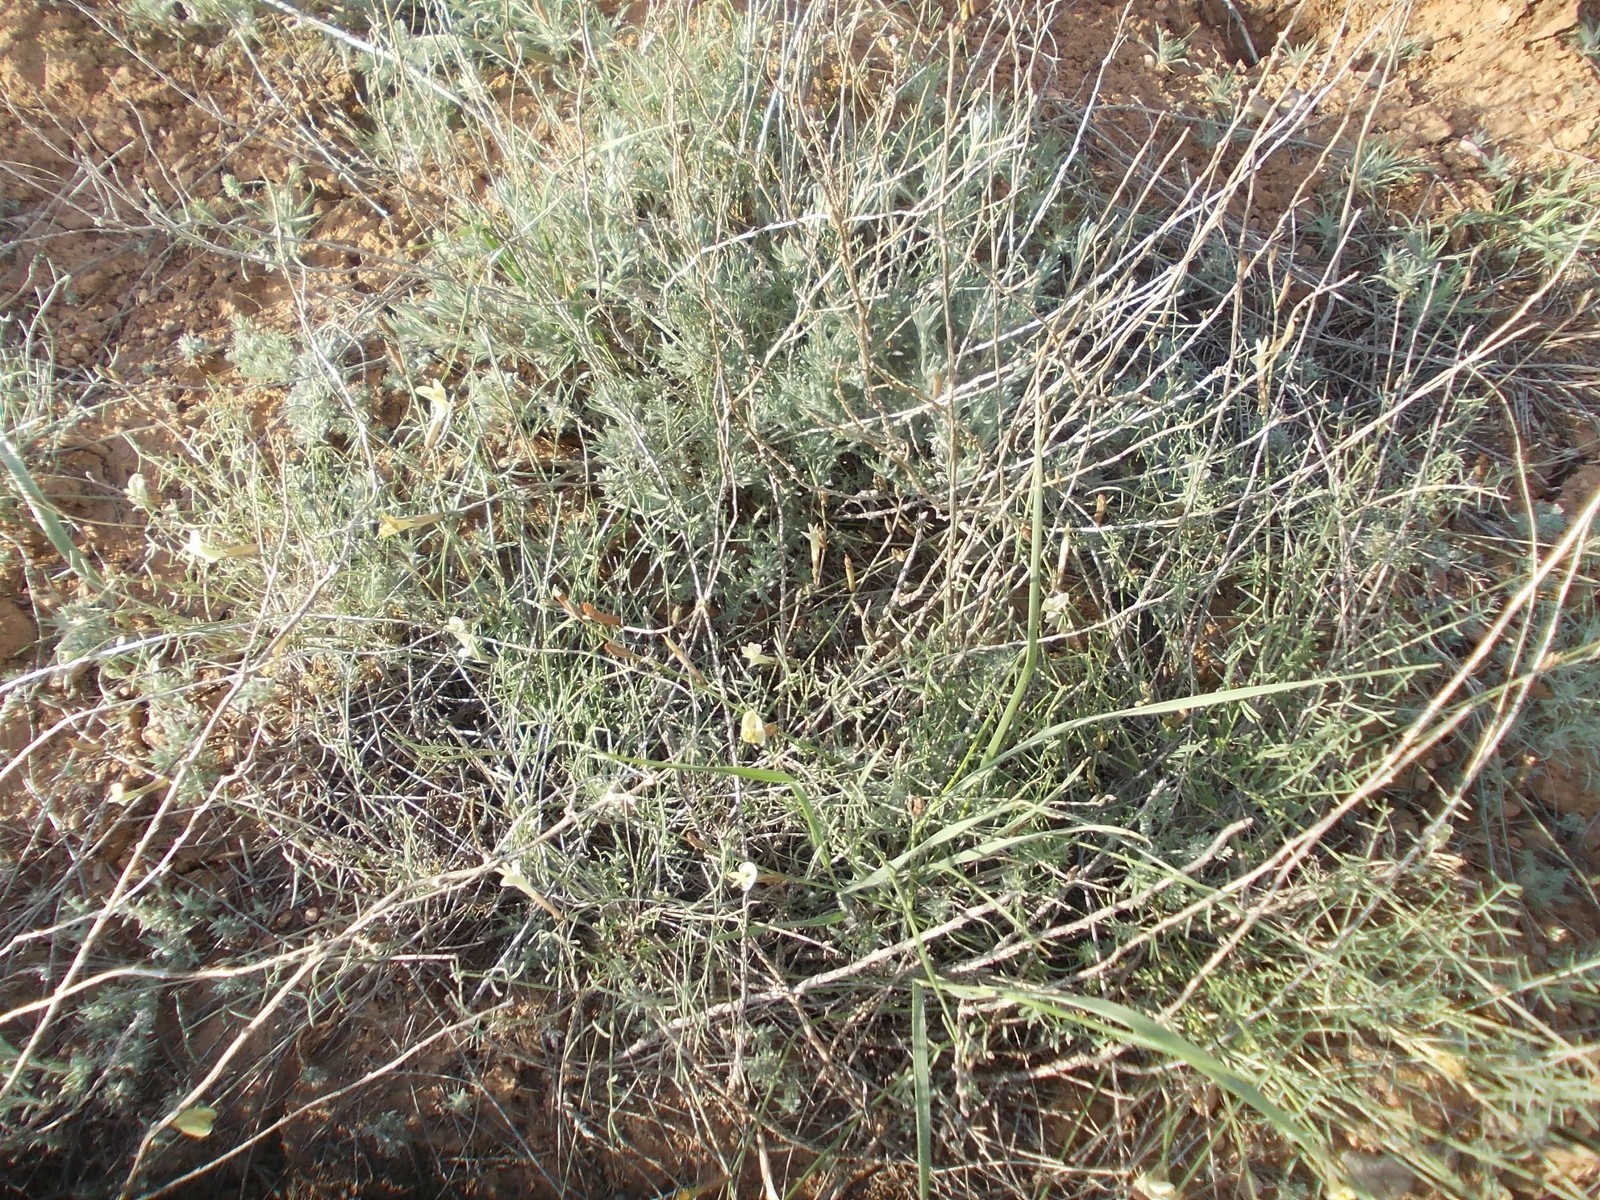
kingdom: Plantae
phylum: Tracheophyta
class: Magnoliopsida
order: Fabales
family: Fabaceae
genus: Astragalus
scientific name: Astragalus ucrainicus
